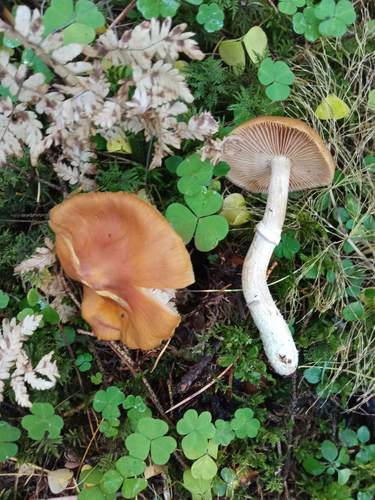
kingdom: Fungi
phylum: Basidiomycota
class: Agaricomycetes
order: Agaricales
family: Cortinariaceae
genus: Cortinarius
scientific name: Cortinarius caperatus
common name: The gypsy
